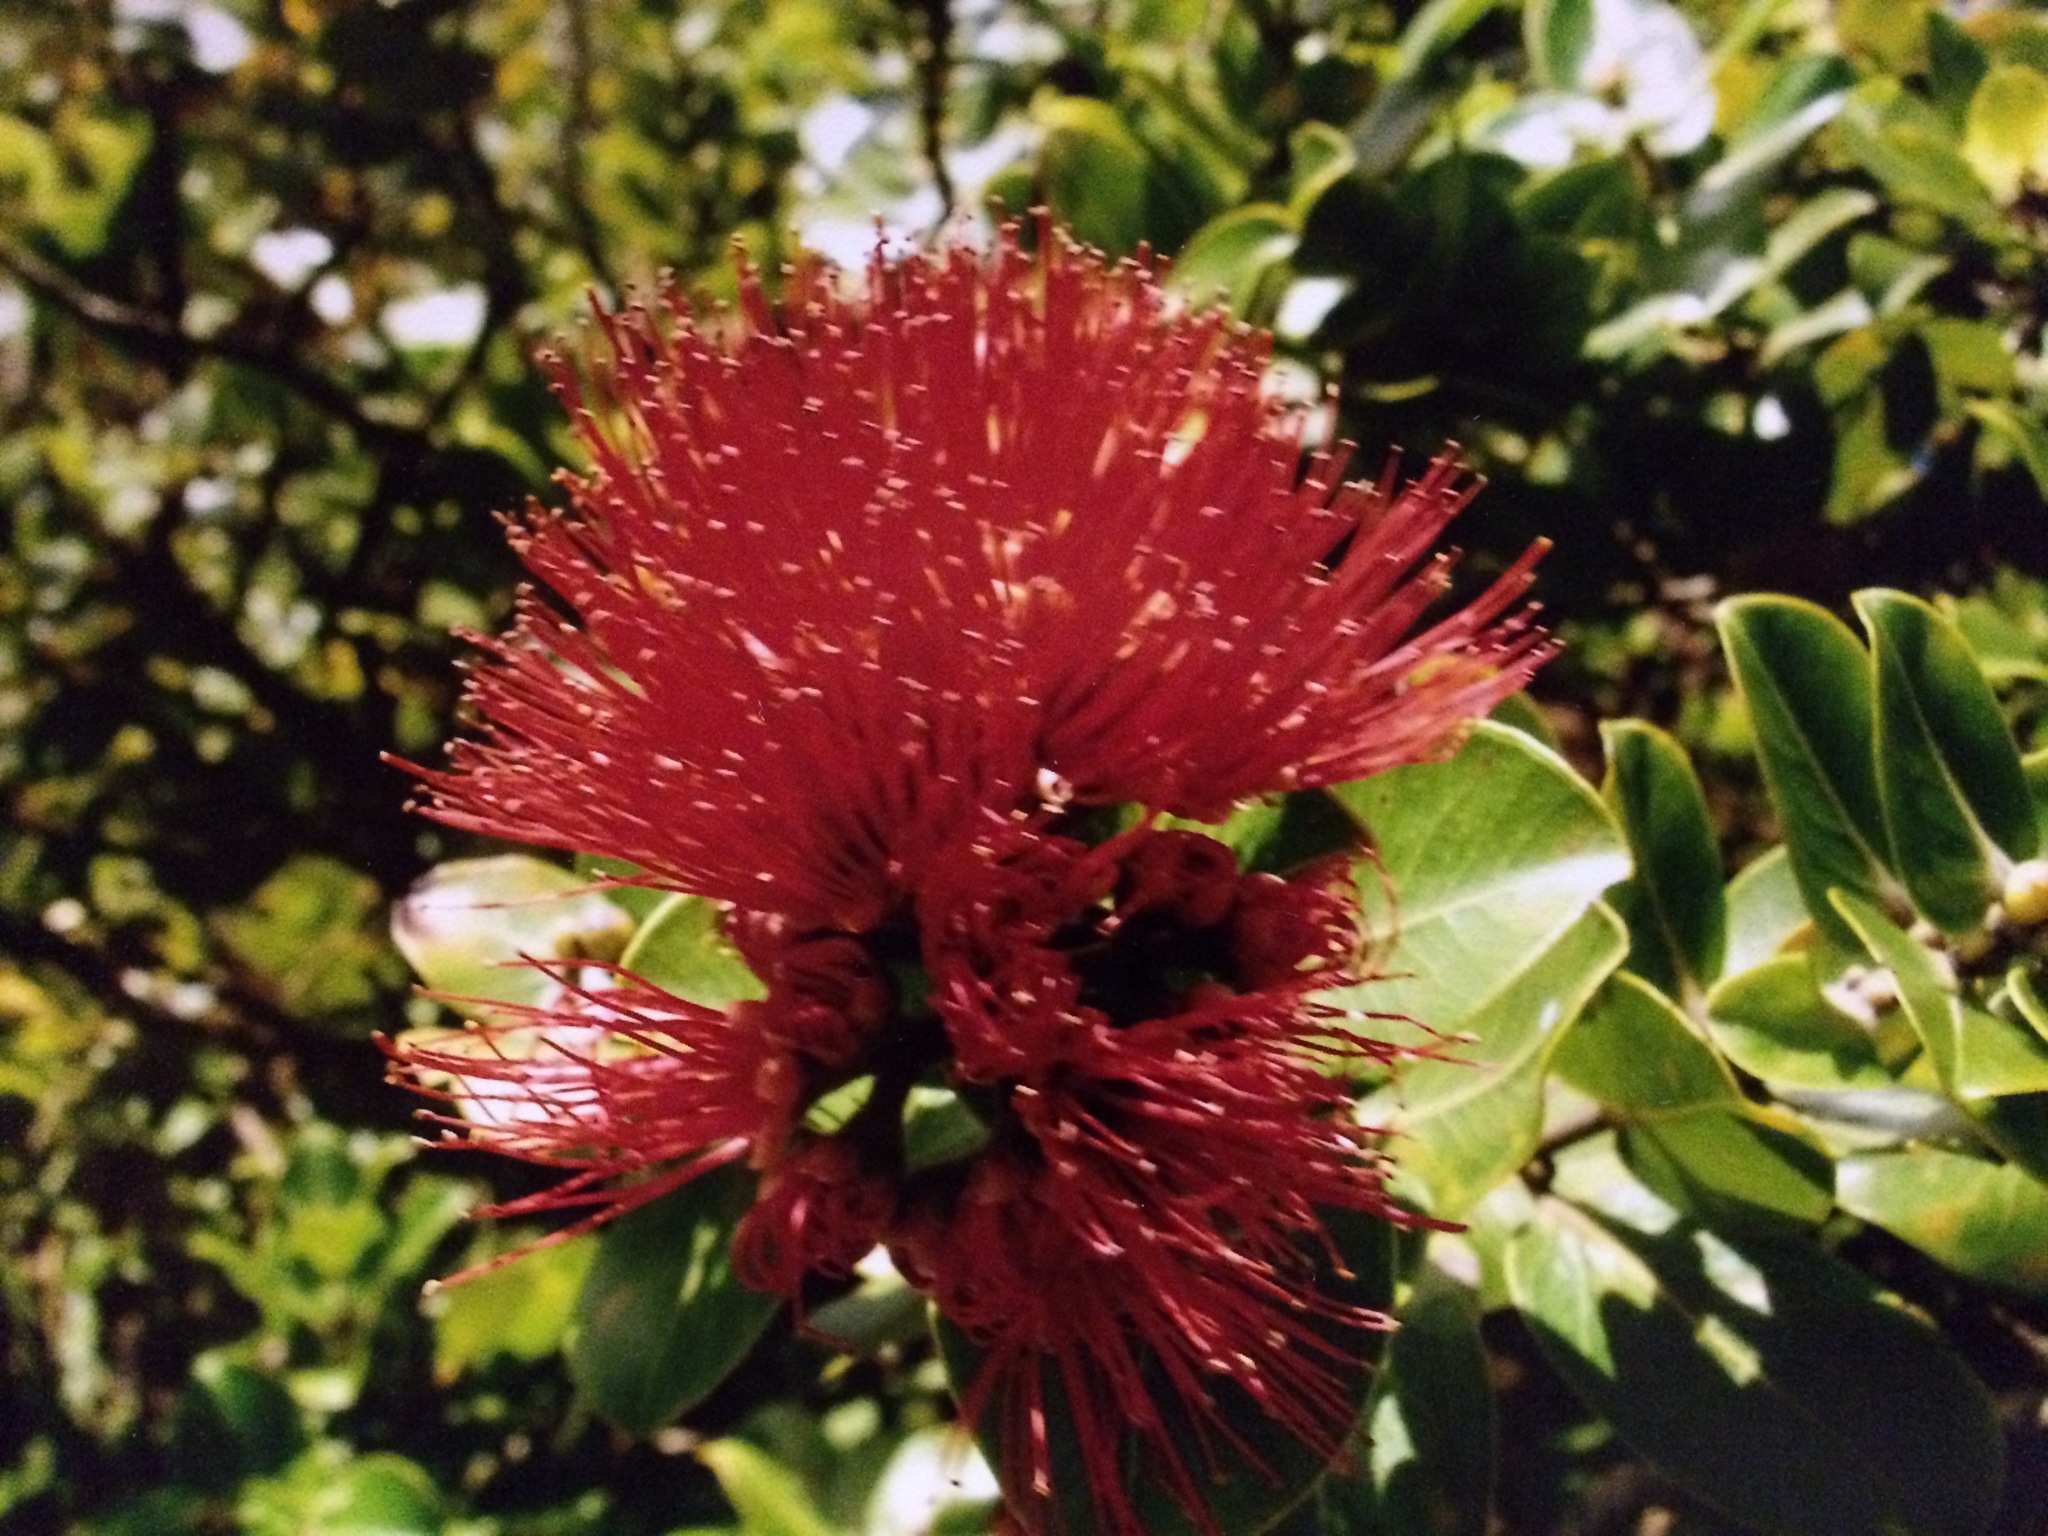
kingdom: Plantae
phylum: Tracheophyta
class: Magnoliopsida
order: Myrtales
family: Myrtaceae
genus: Metrosideros
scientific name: Metrosideros polymorpha
